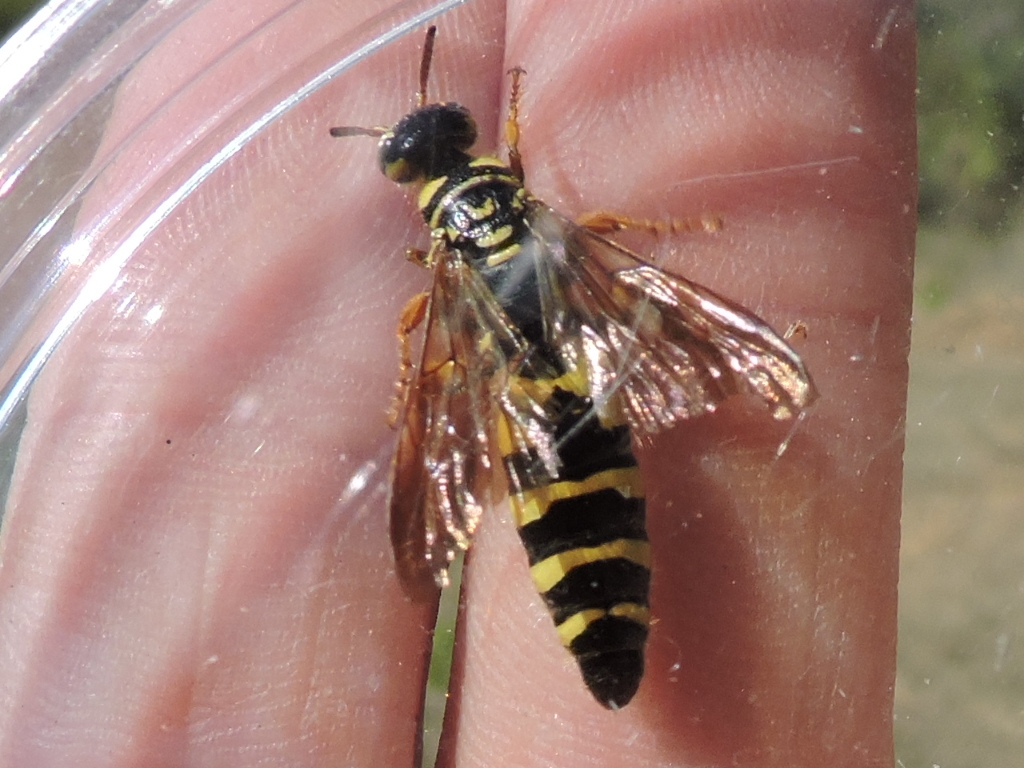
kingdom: Animalia
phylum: Arthropoda
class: Insecta
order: Hymenoptera
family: Tiphiidae
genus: Myzinum
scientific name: Myzinum quinquecinctum
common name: Five-banded thynnid wasp
